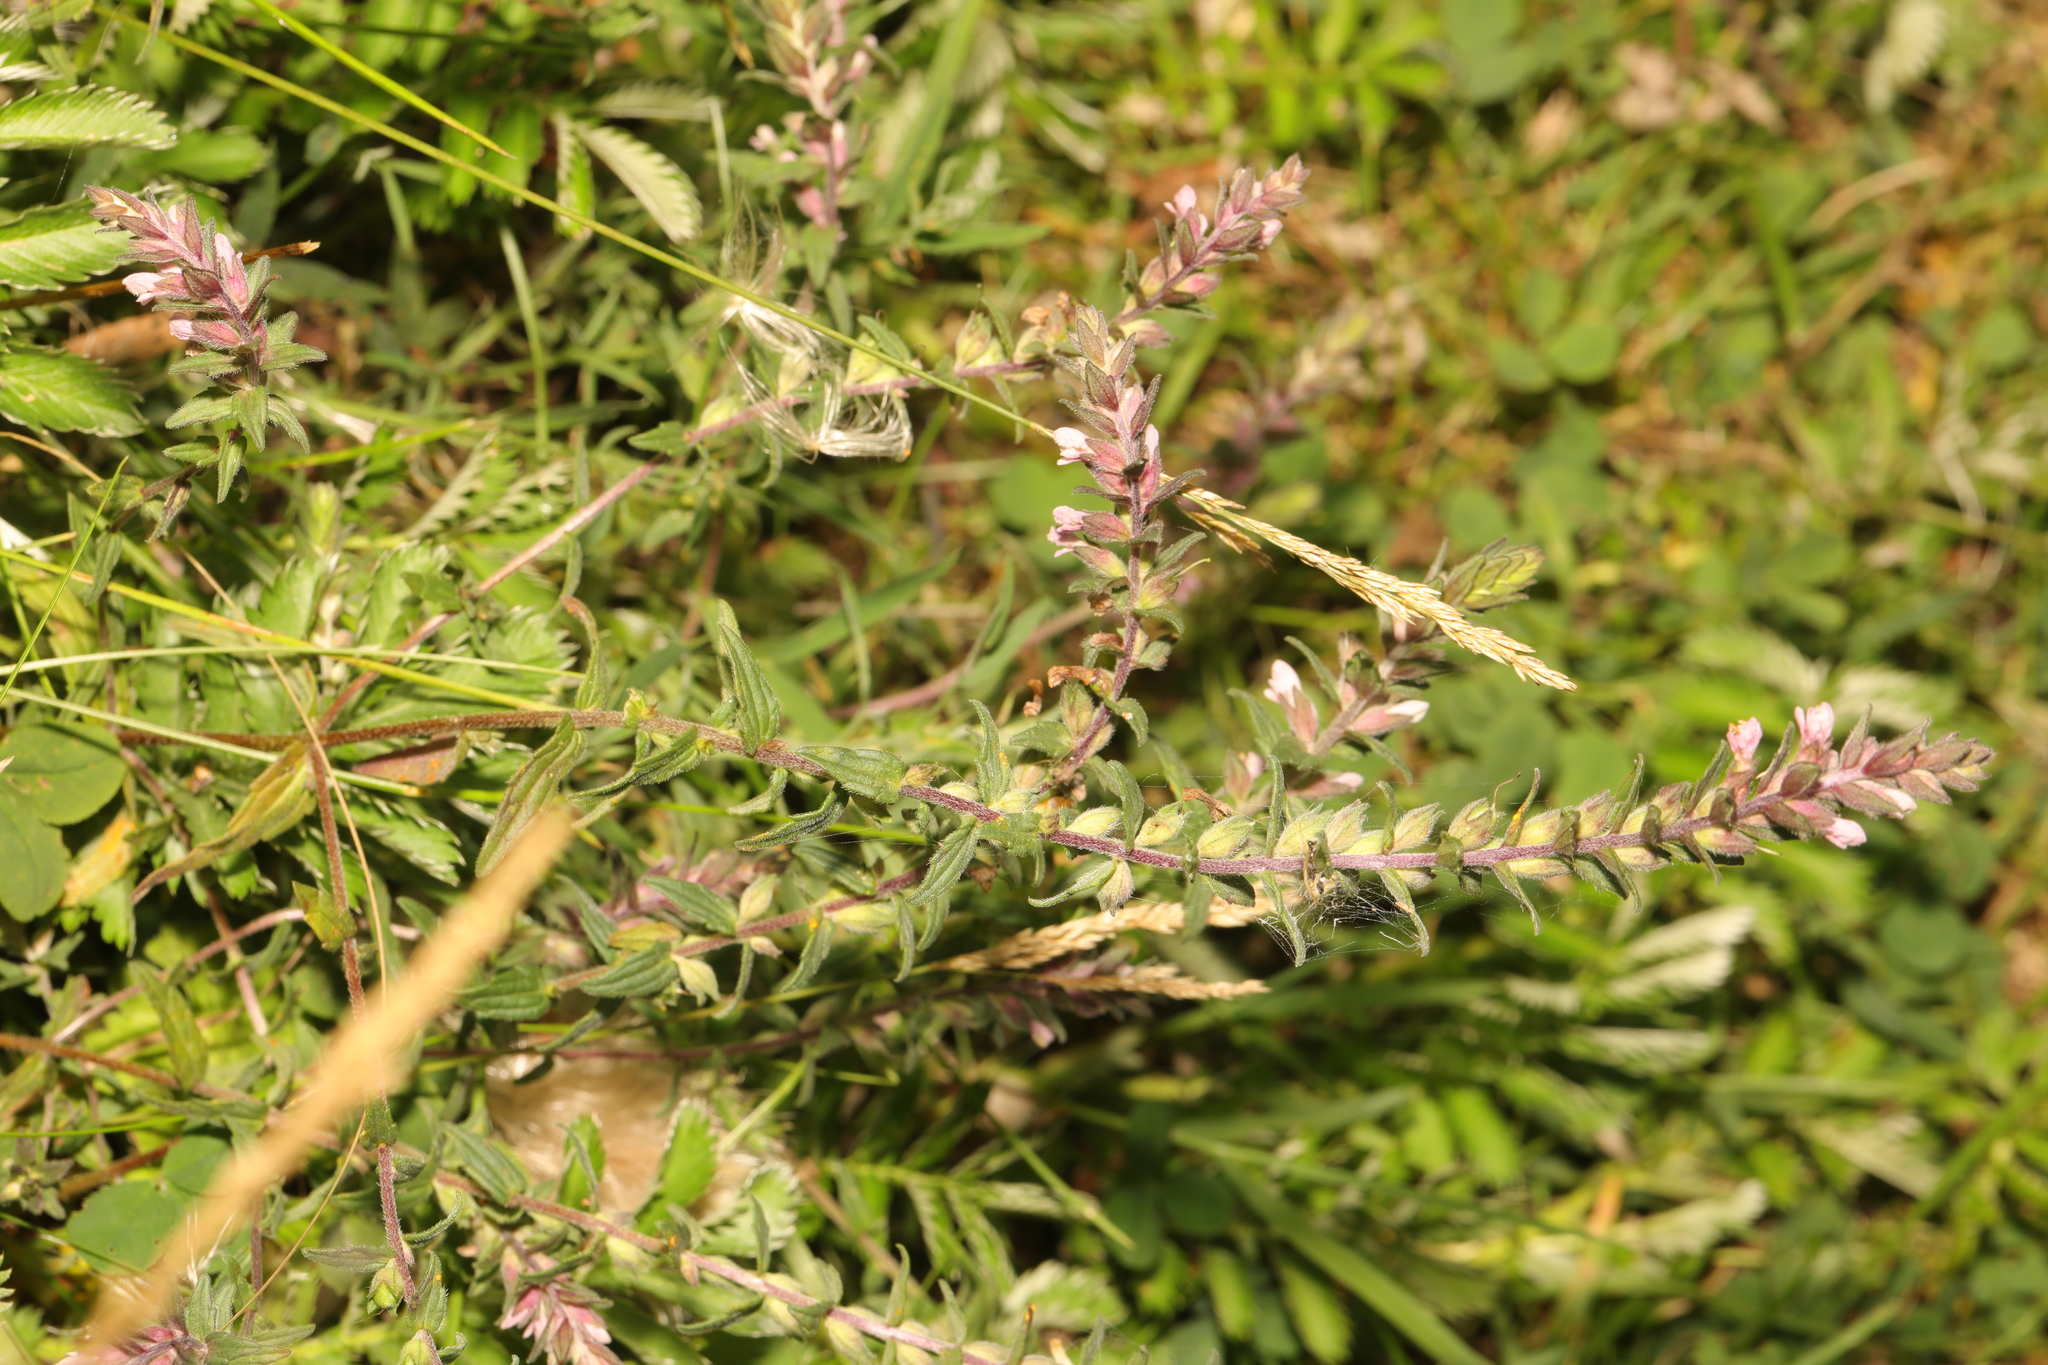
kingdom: Plantae
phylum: Tracheophyta
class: Magnoliopsida
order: Lamiales
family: Orobanchaceae
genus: Odontites
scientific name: Odontites vernus
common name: Red bartsia
